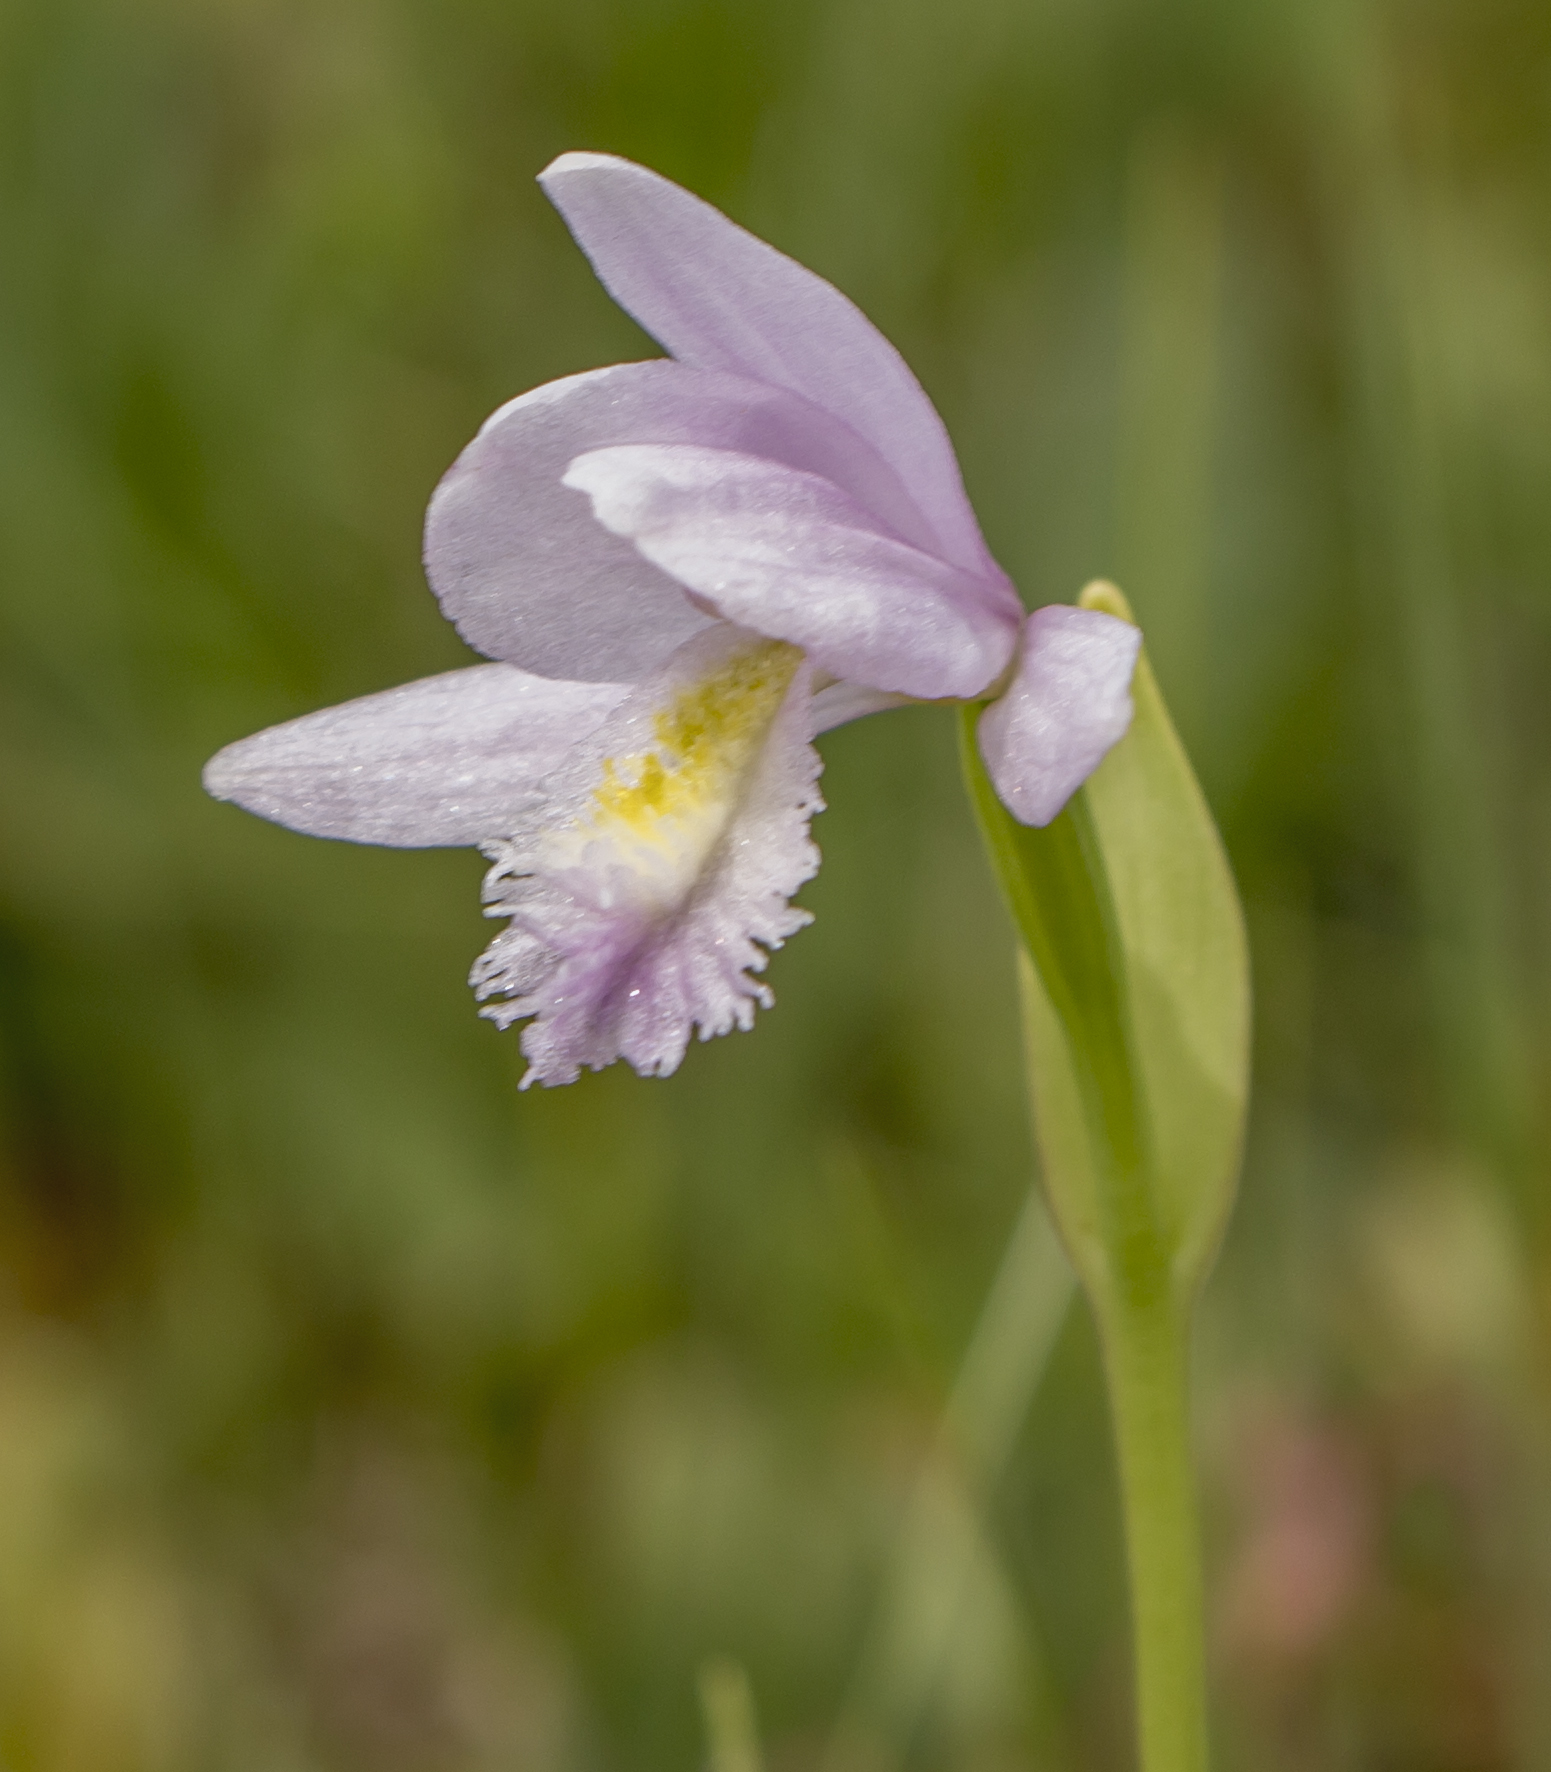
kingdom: Plantae
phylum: Tracheophyta
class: Liliopsida
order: Asparagales
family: Orchidaceae
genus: Pogonia
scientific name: Pogonia ophioglossoides
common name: Rose pogonia
